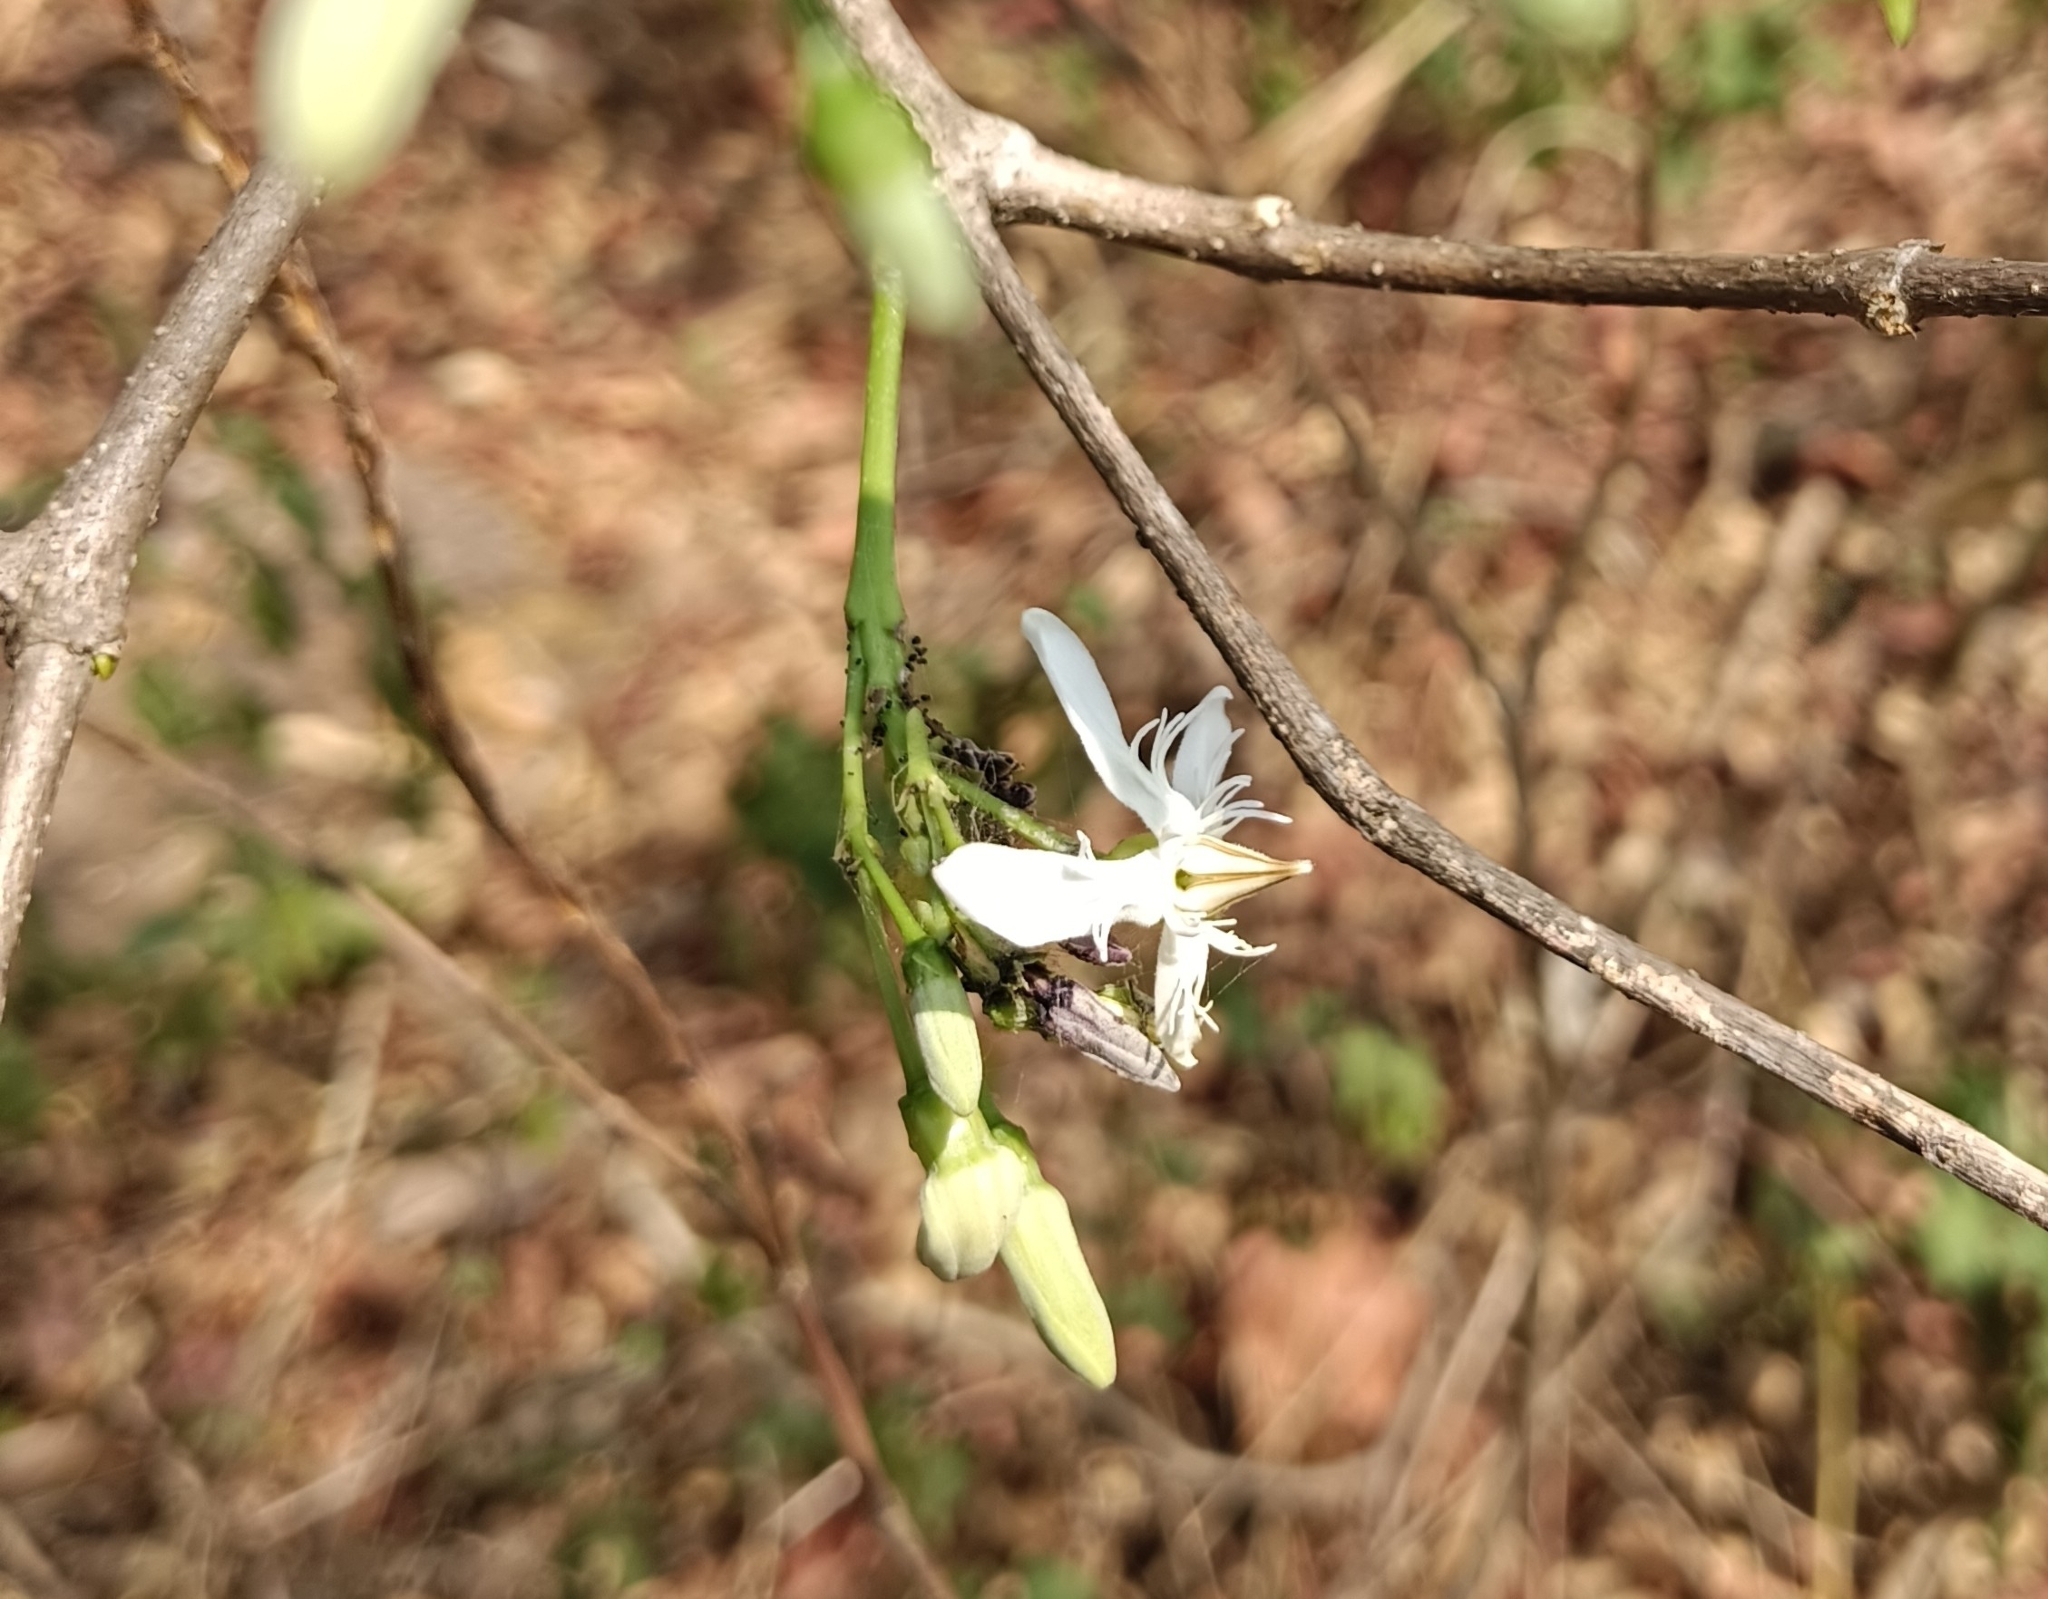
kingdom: Plantae
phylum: Tracheophyta
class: Magnoliopsida
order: Gentianales
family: Apocynaceae
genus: Wrightia
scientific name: Wrightia tinctoria
